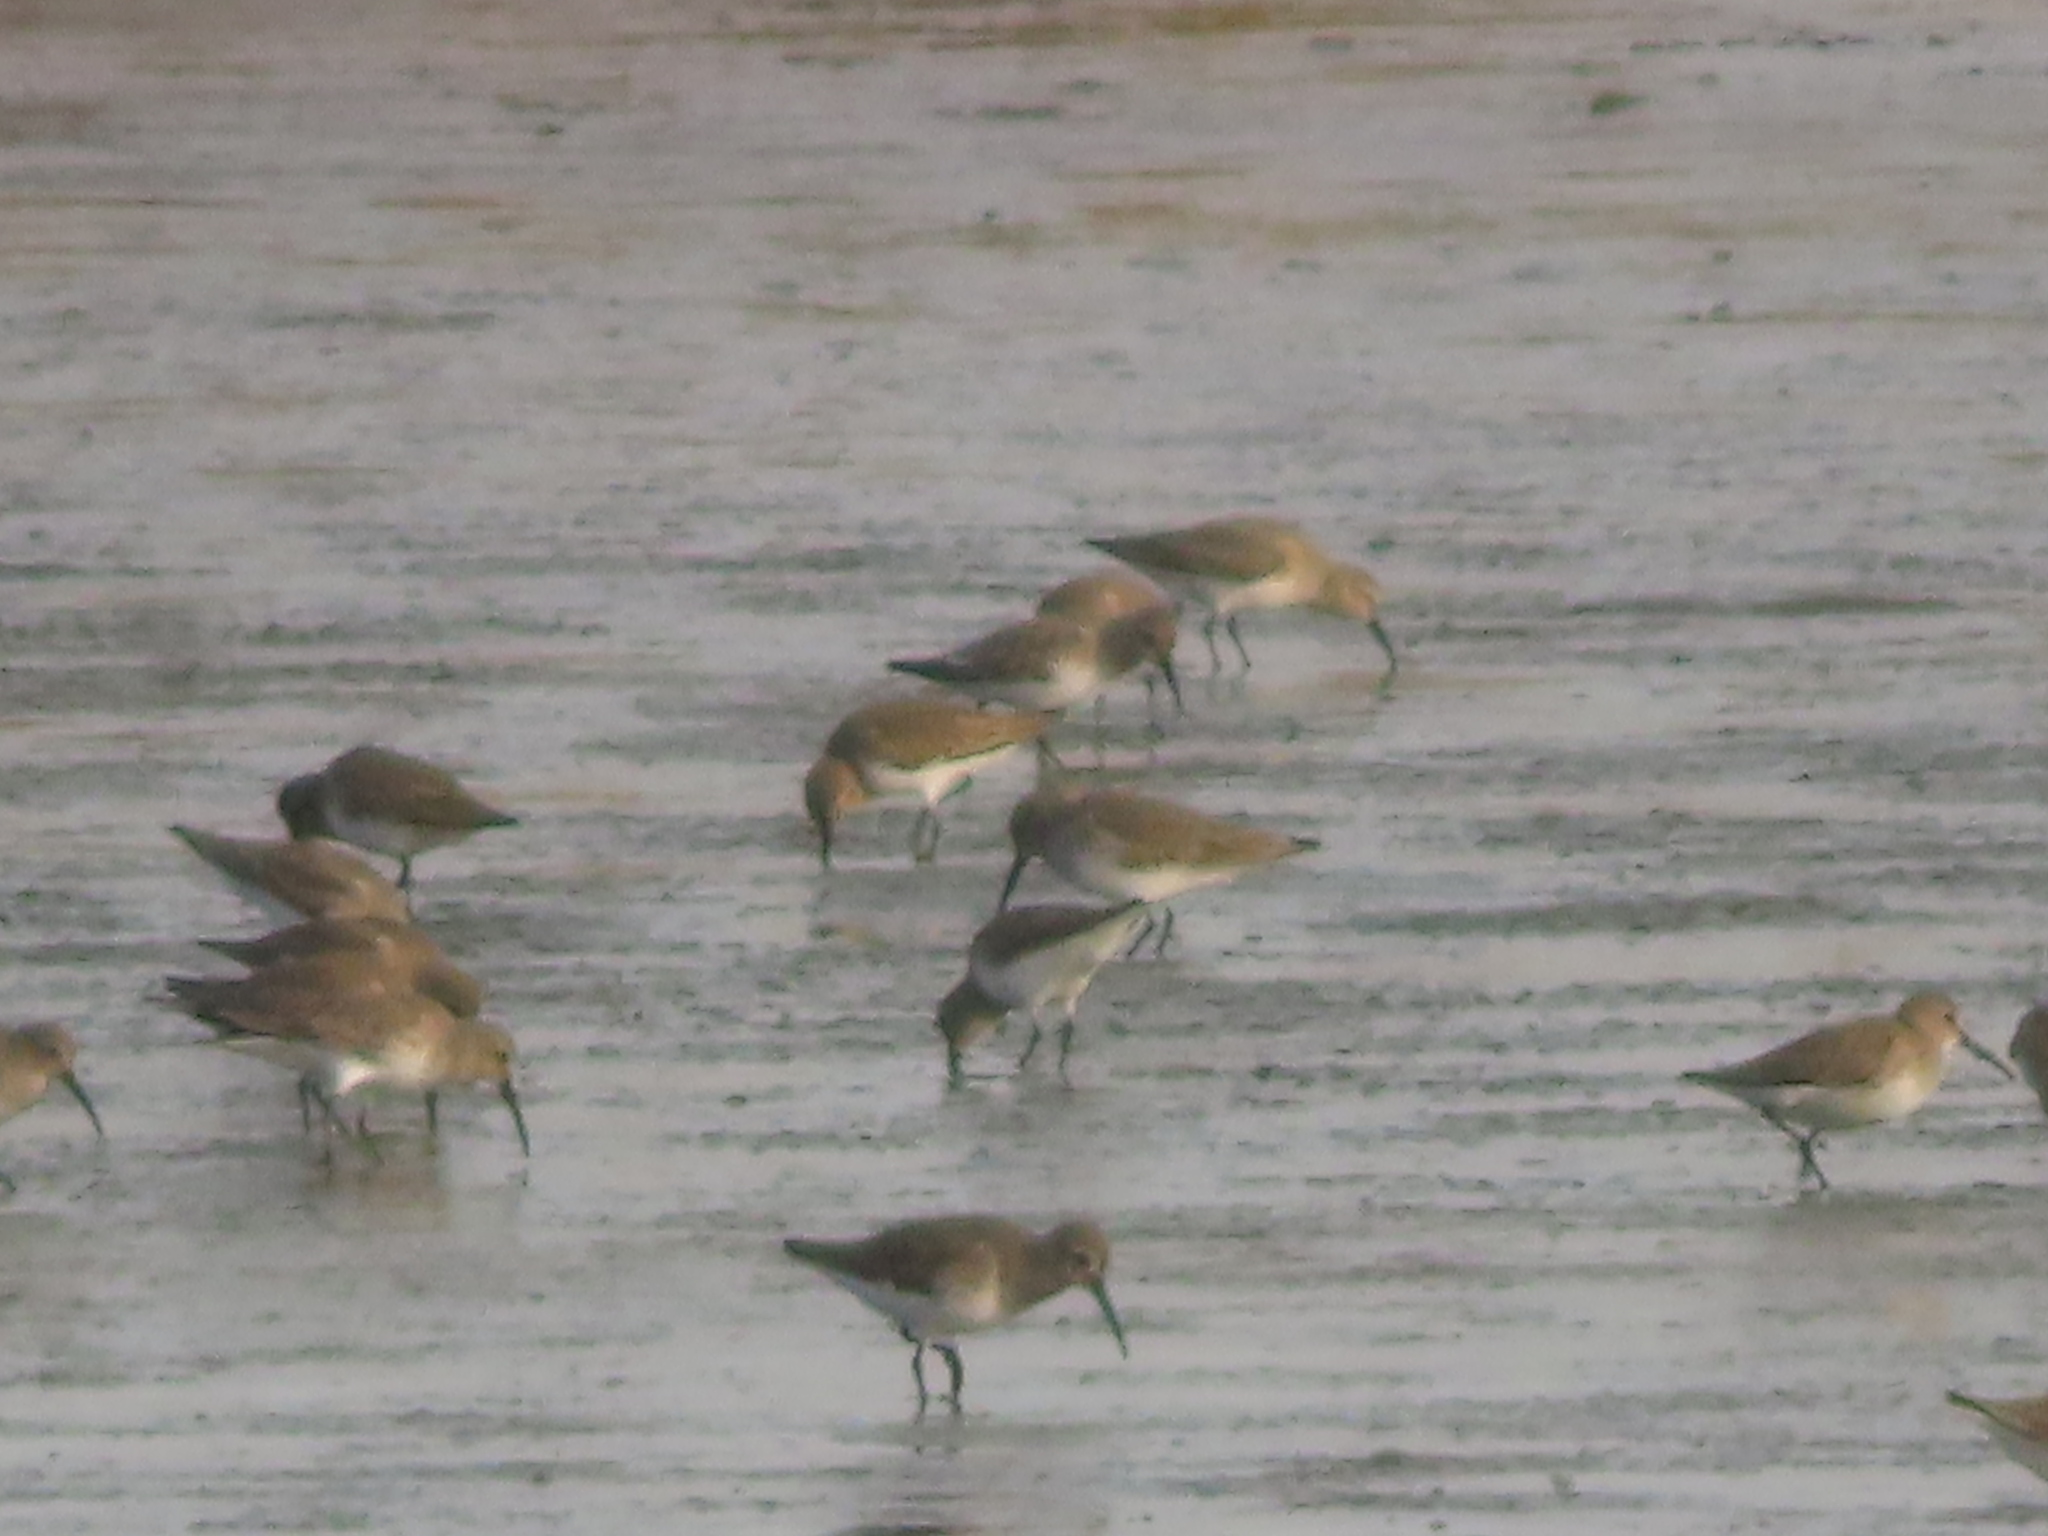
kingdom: Animalia
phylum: Chordata
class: Aves
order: Charadriiformes
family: Scolopacidae
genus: Calidris
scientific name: Calidris alpina
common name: Dunlin
